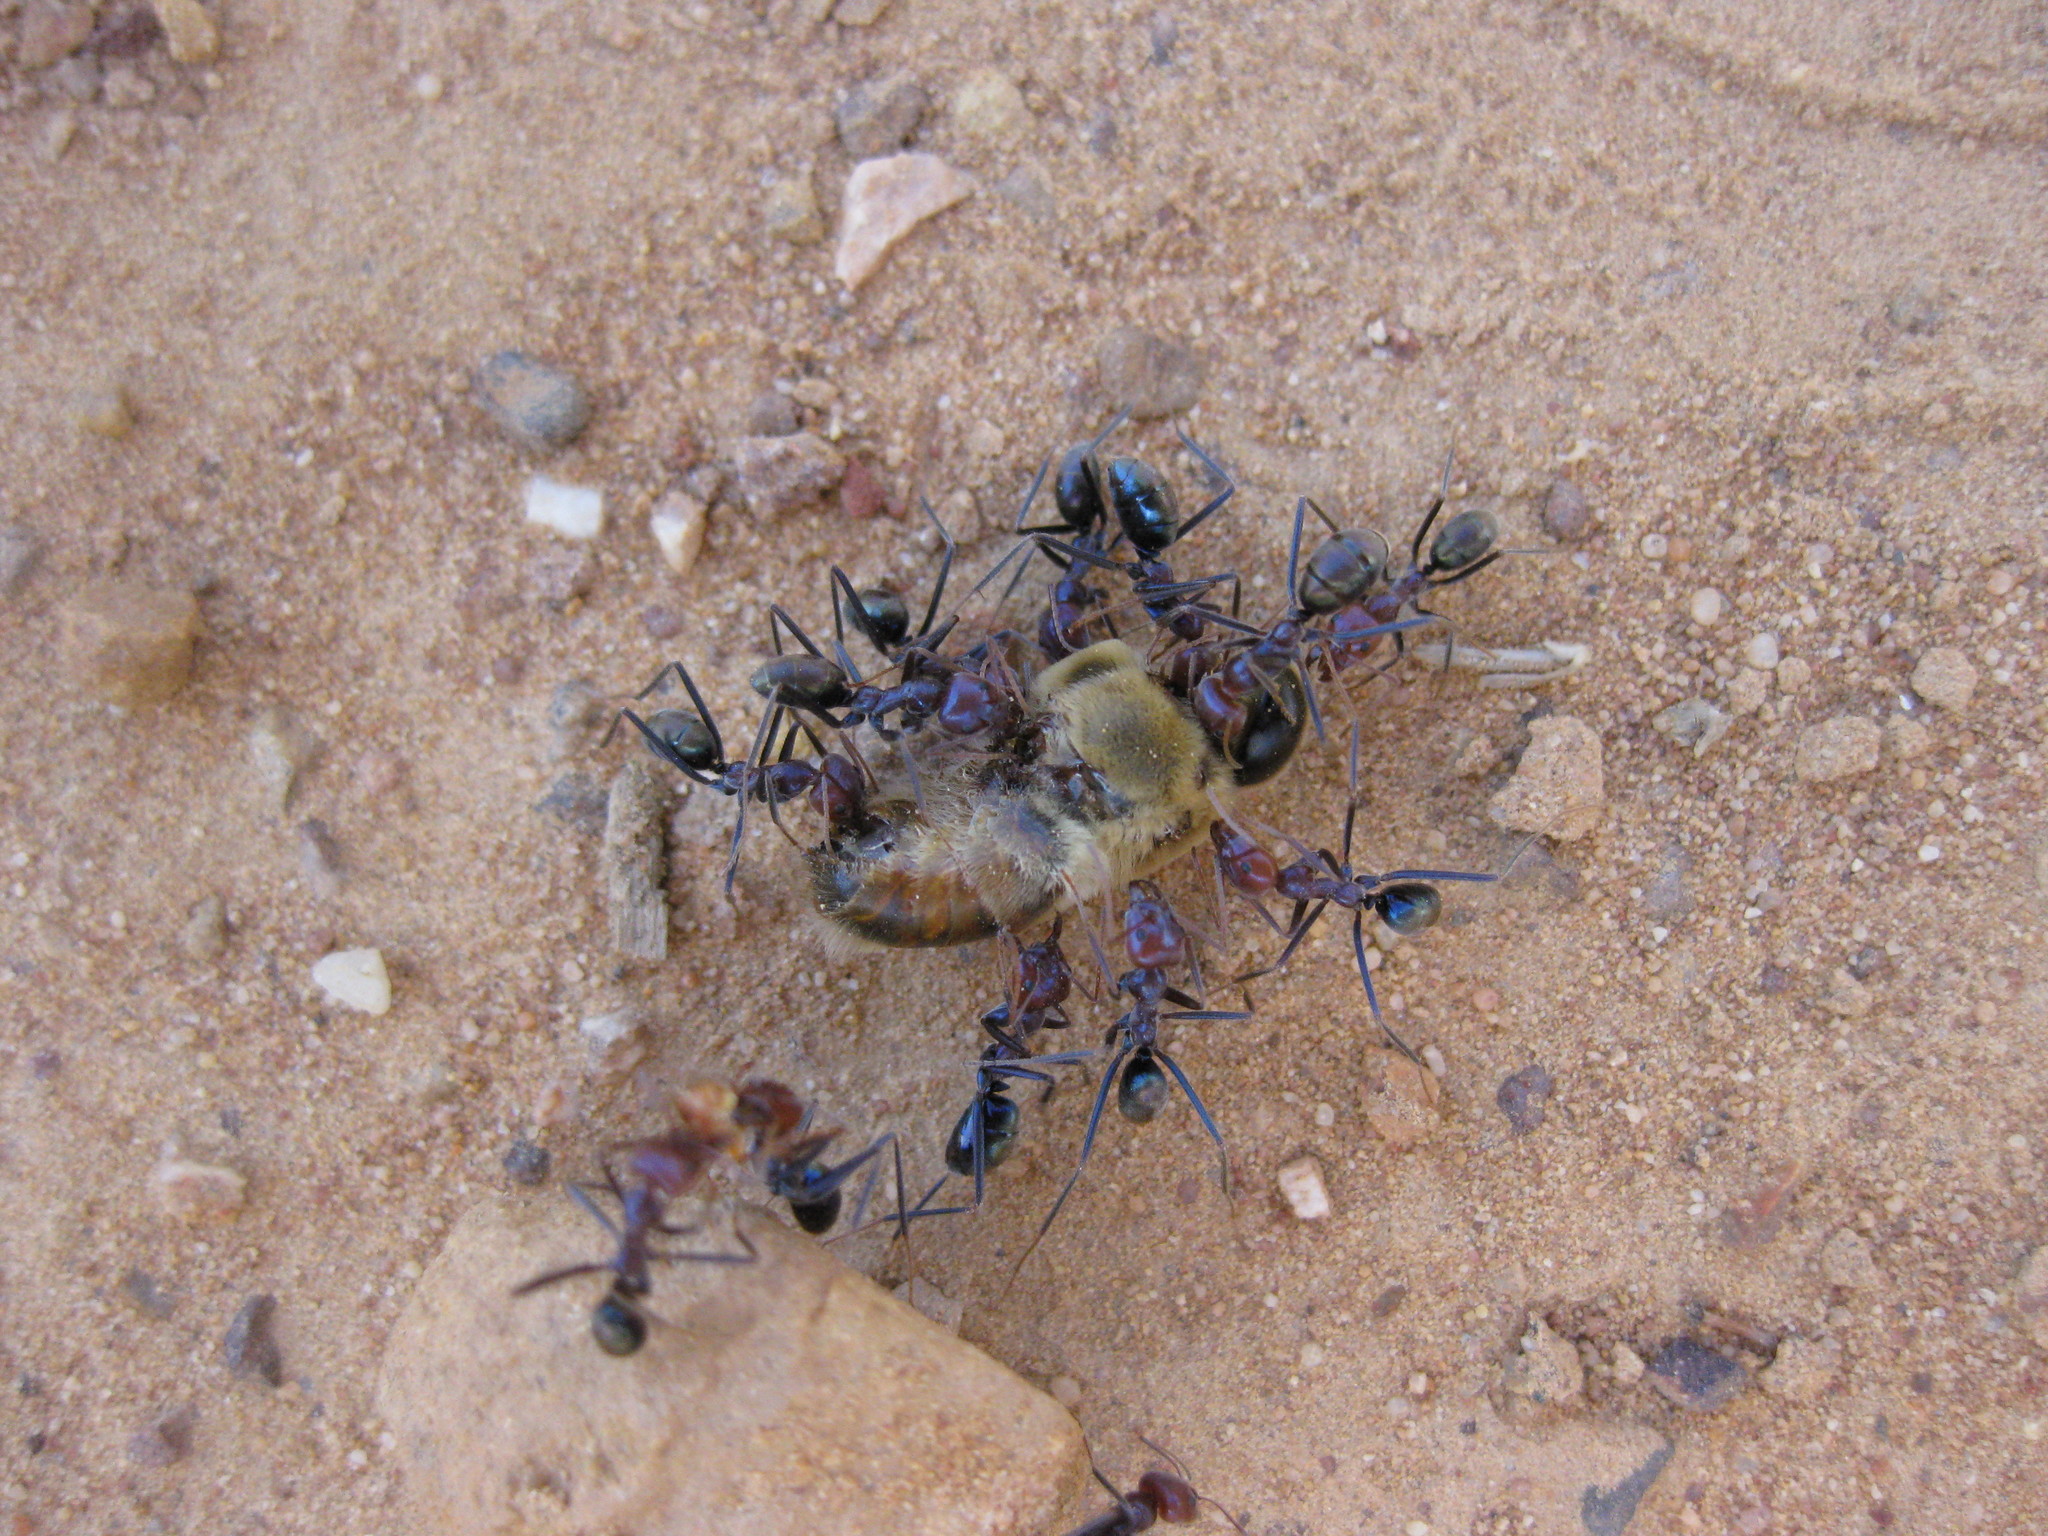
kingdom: Animalia
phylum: Arthropoda
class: Insecta
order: Hymenoptera
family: Formicidae
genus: Iridomyrmex
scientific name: Iridomyrmex purpureus
